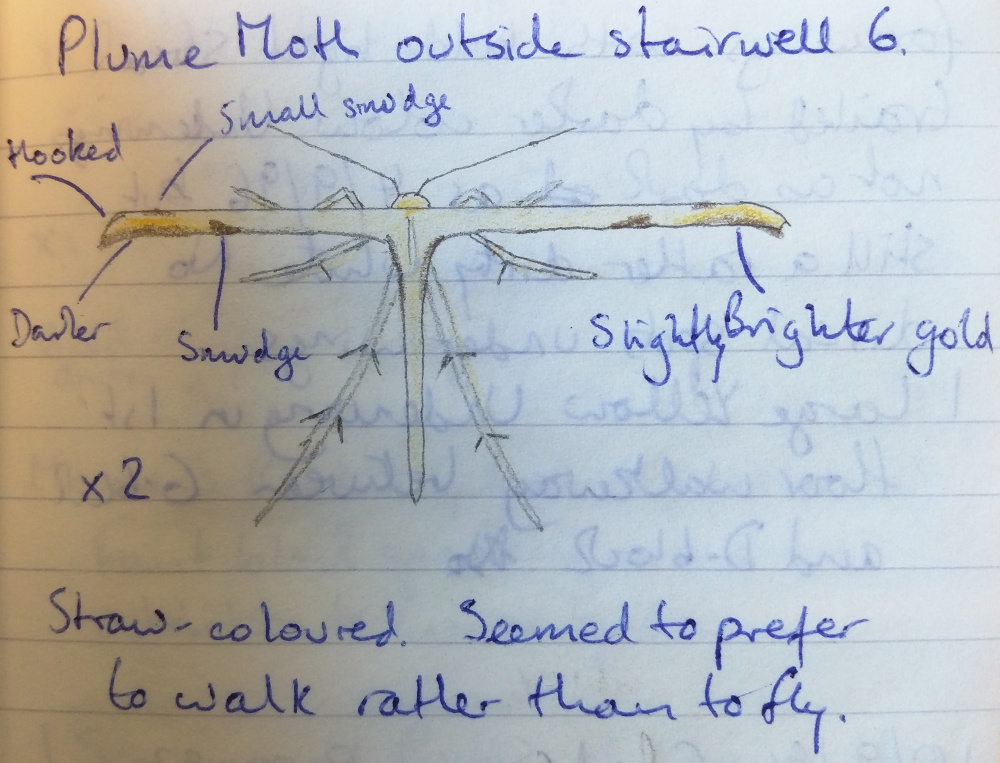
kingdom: Animalia
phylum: Arthropoda
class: Insecta
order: Lepidoptera
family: Pterophoridae
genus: Emmelina
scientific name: Emmelina monodactyla
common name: Common plume
